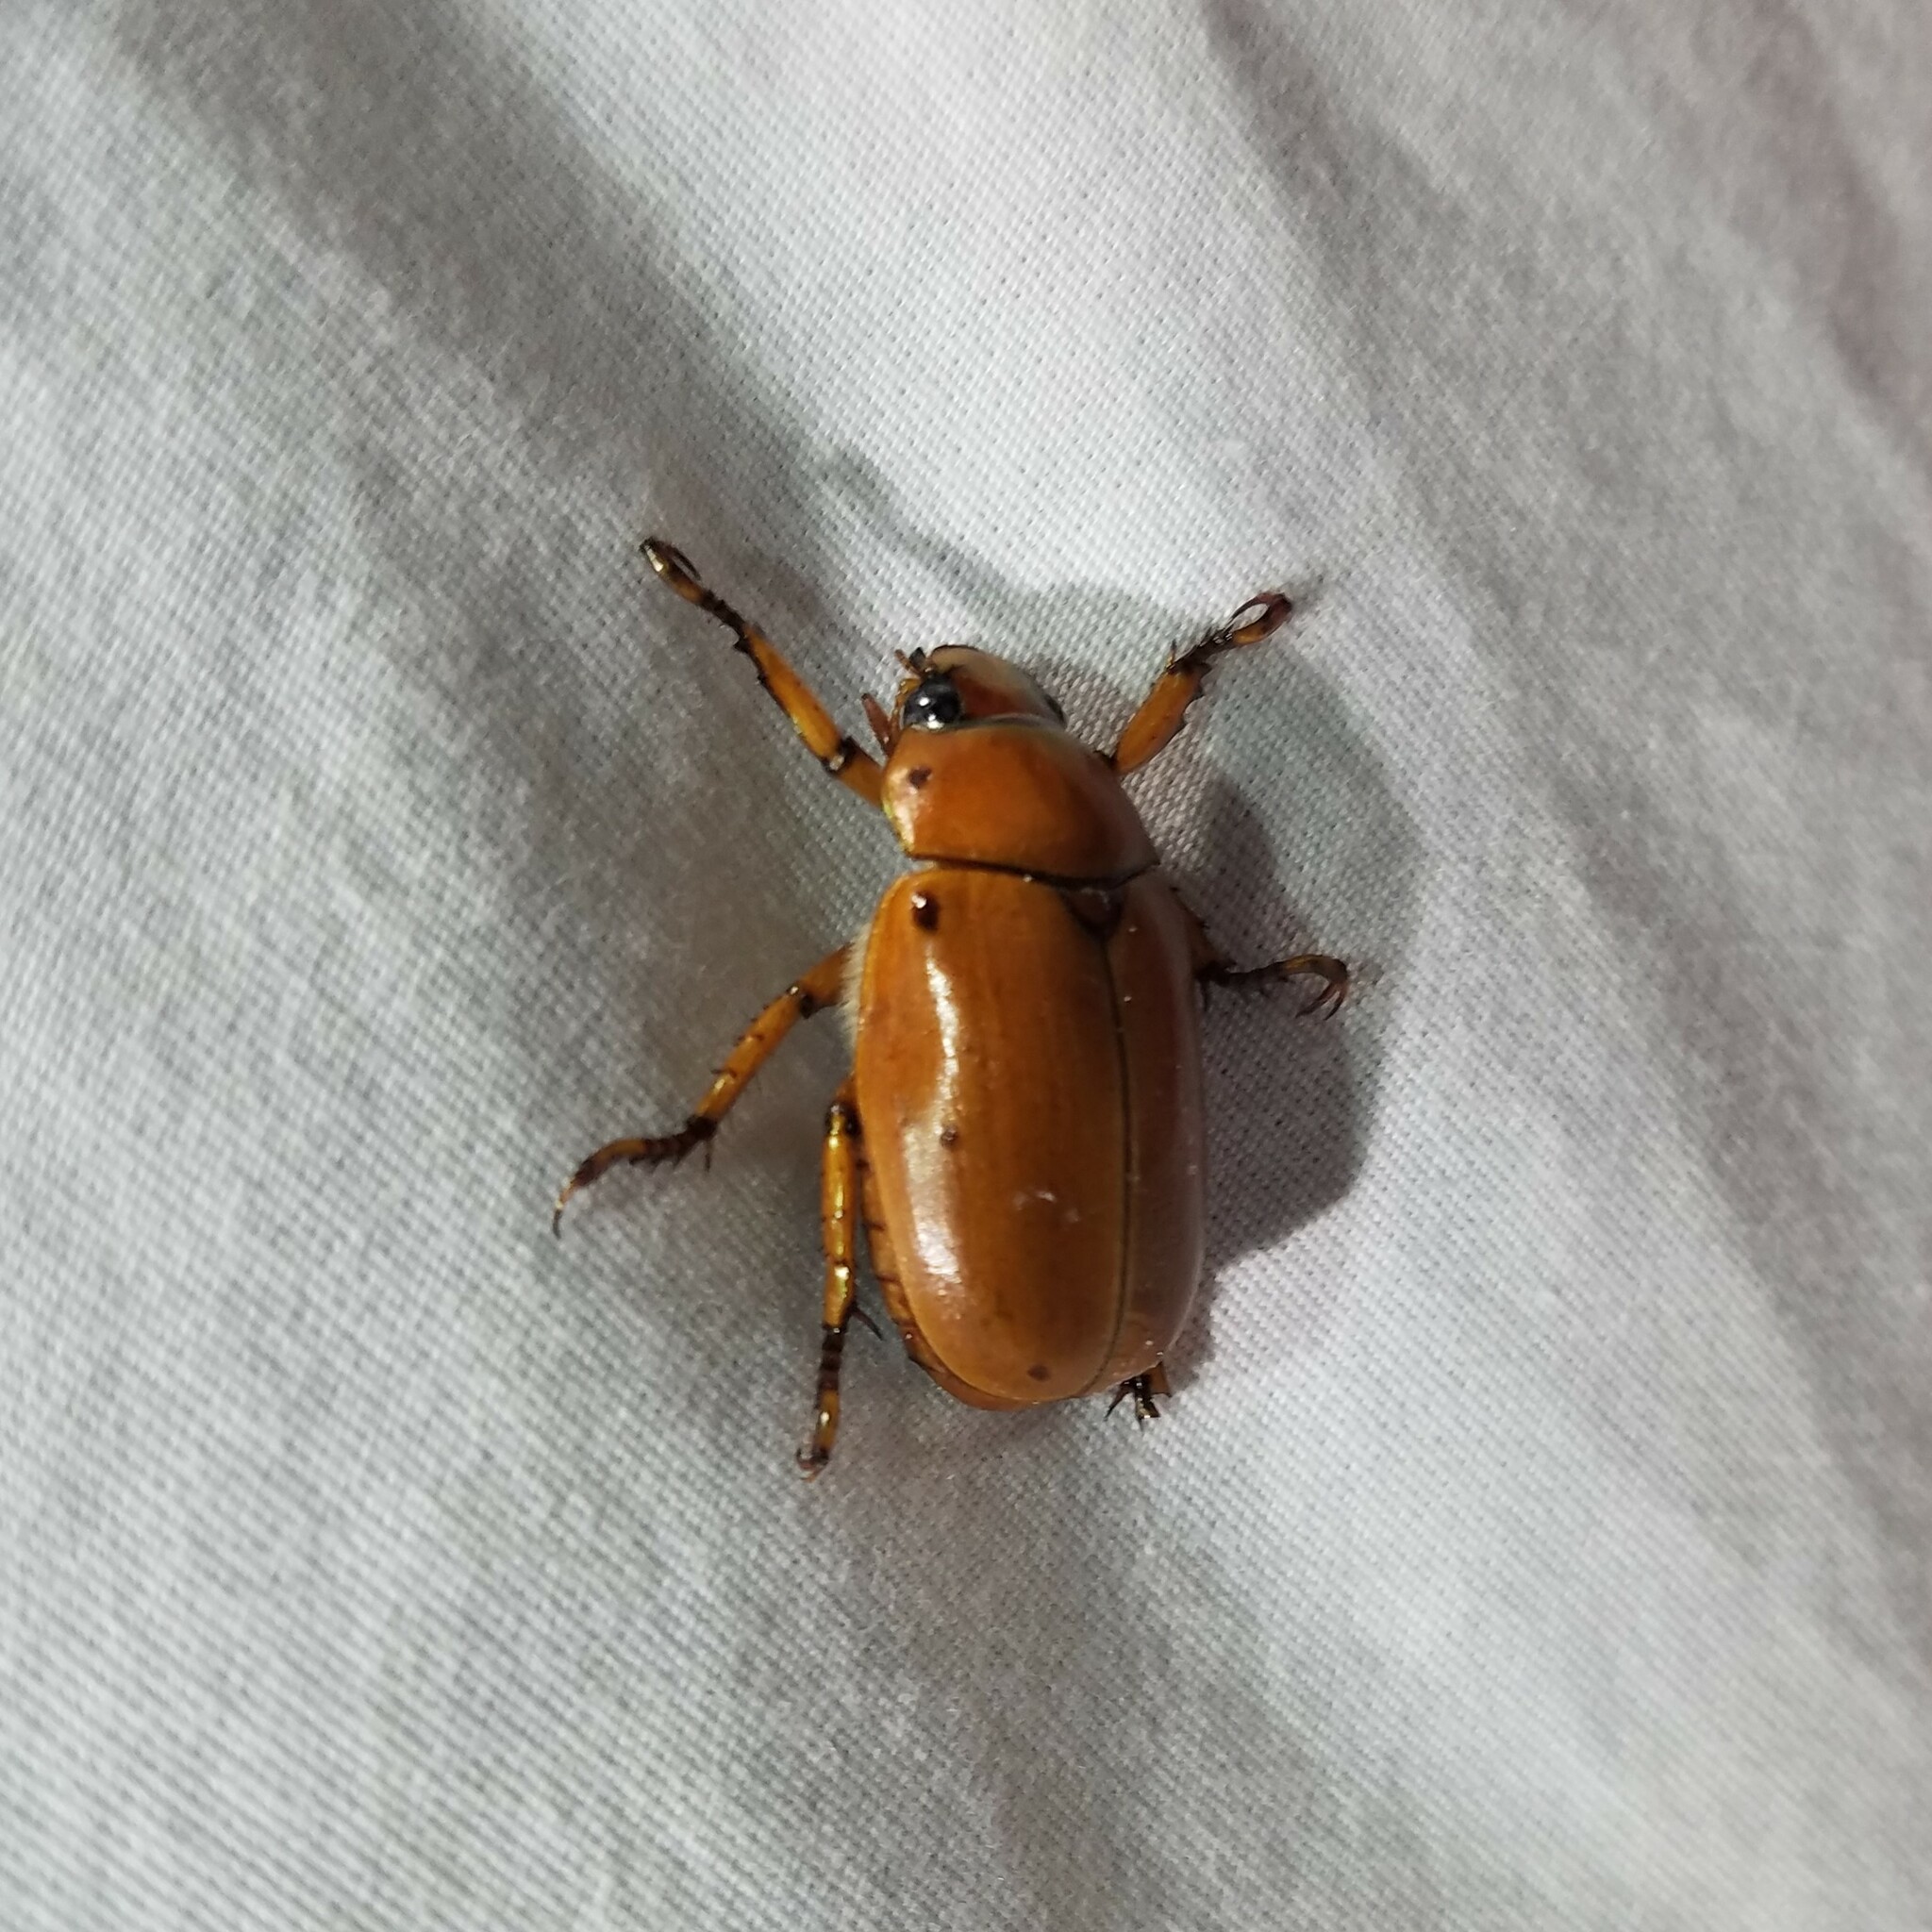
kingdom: Animalia
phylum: Arthropoda
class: Insecta
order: Coleoptera
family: Scarabaeidae
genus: Pelidnota
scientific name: Pelidnota punctata
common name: Grapevine beetle
